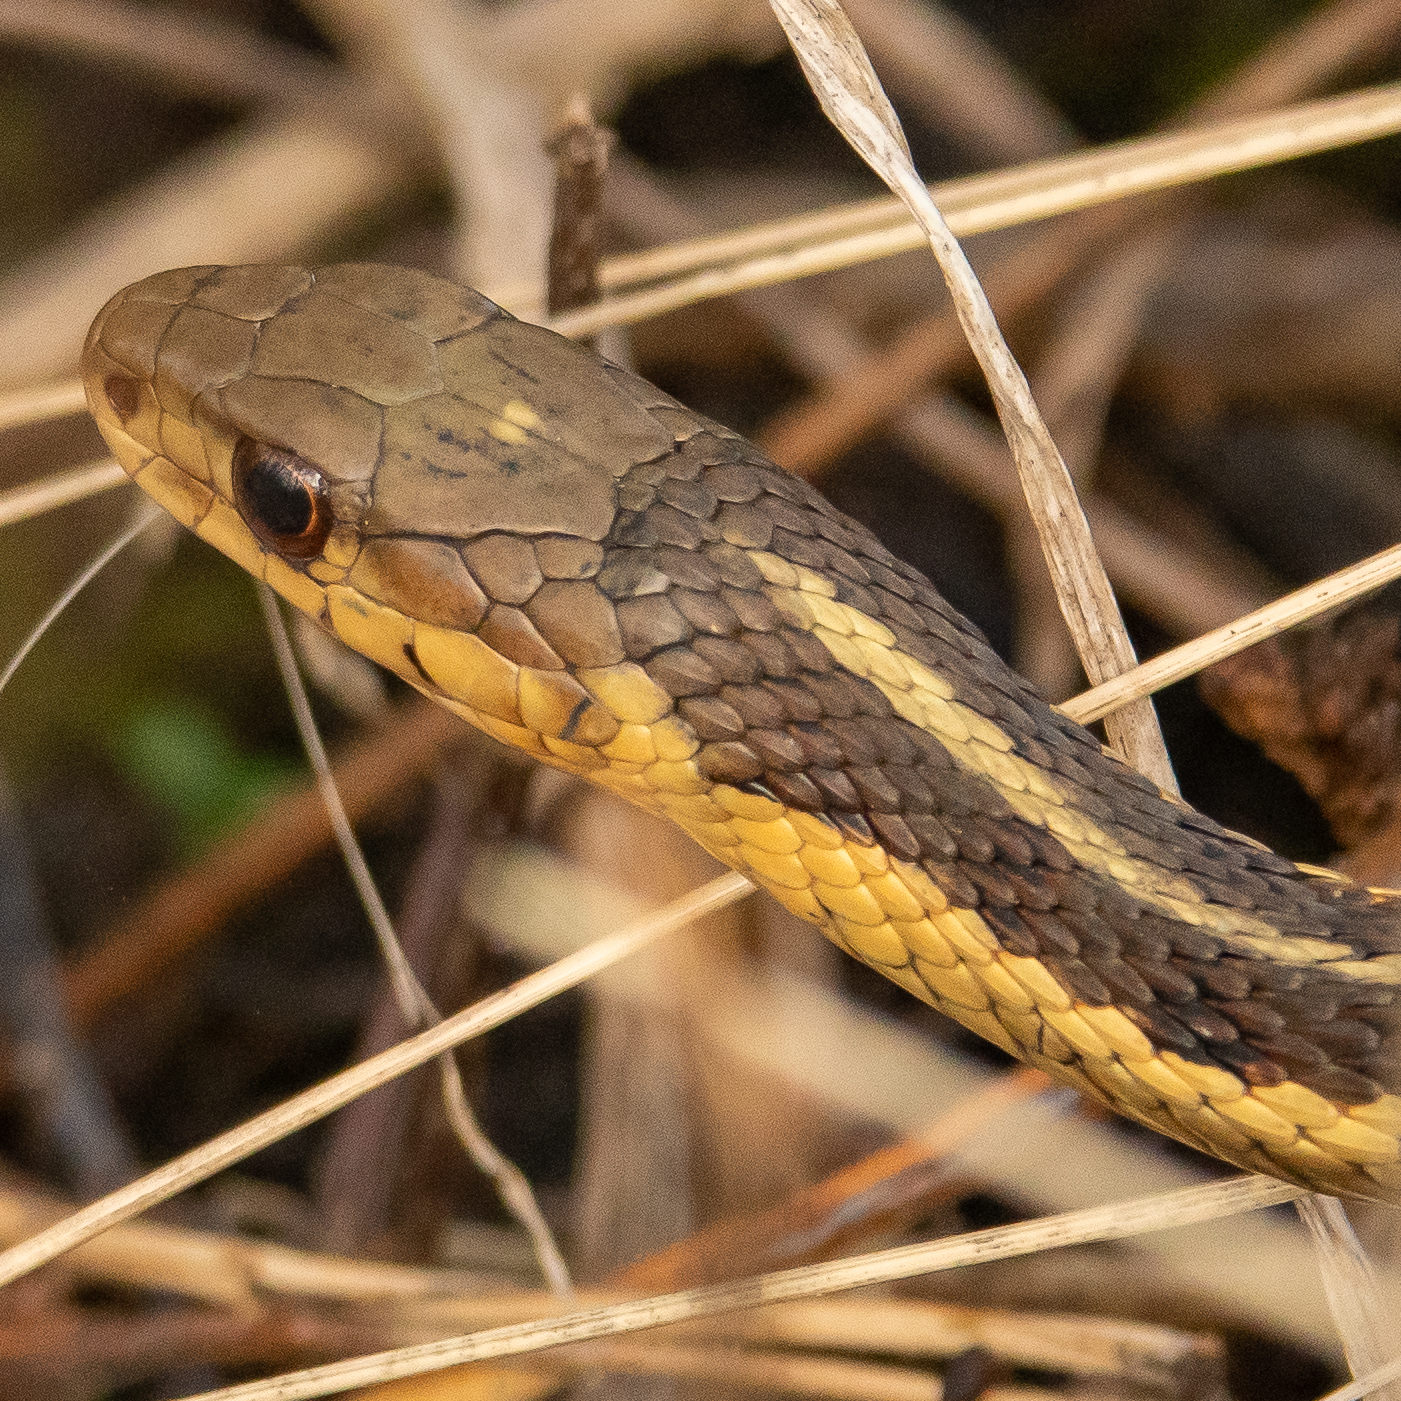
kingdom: Animalia
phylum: Chordata
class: Squamata
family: Colubridae
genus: Thamnophis
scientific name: Thamnophis sirtalis
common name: Common garter snake
